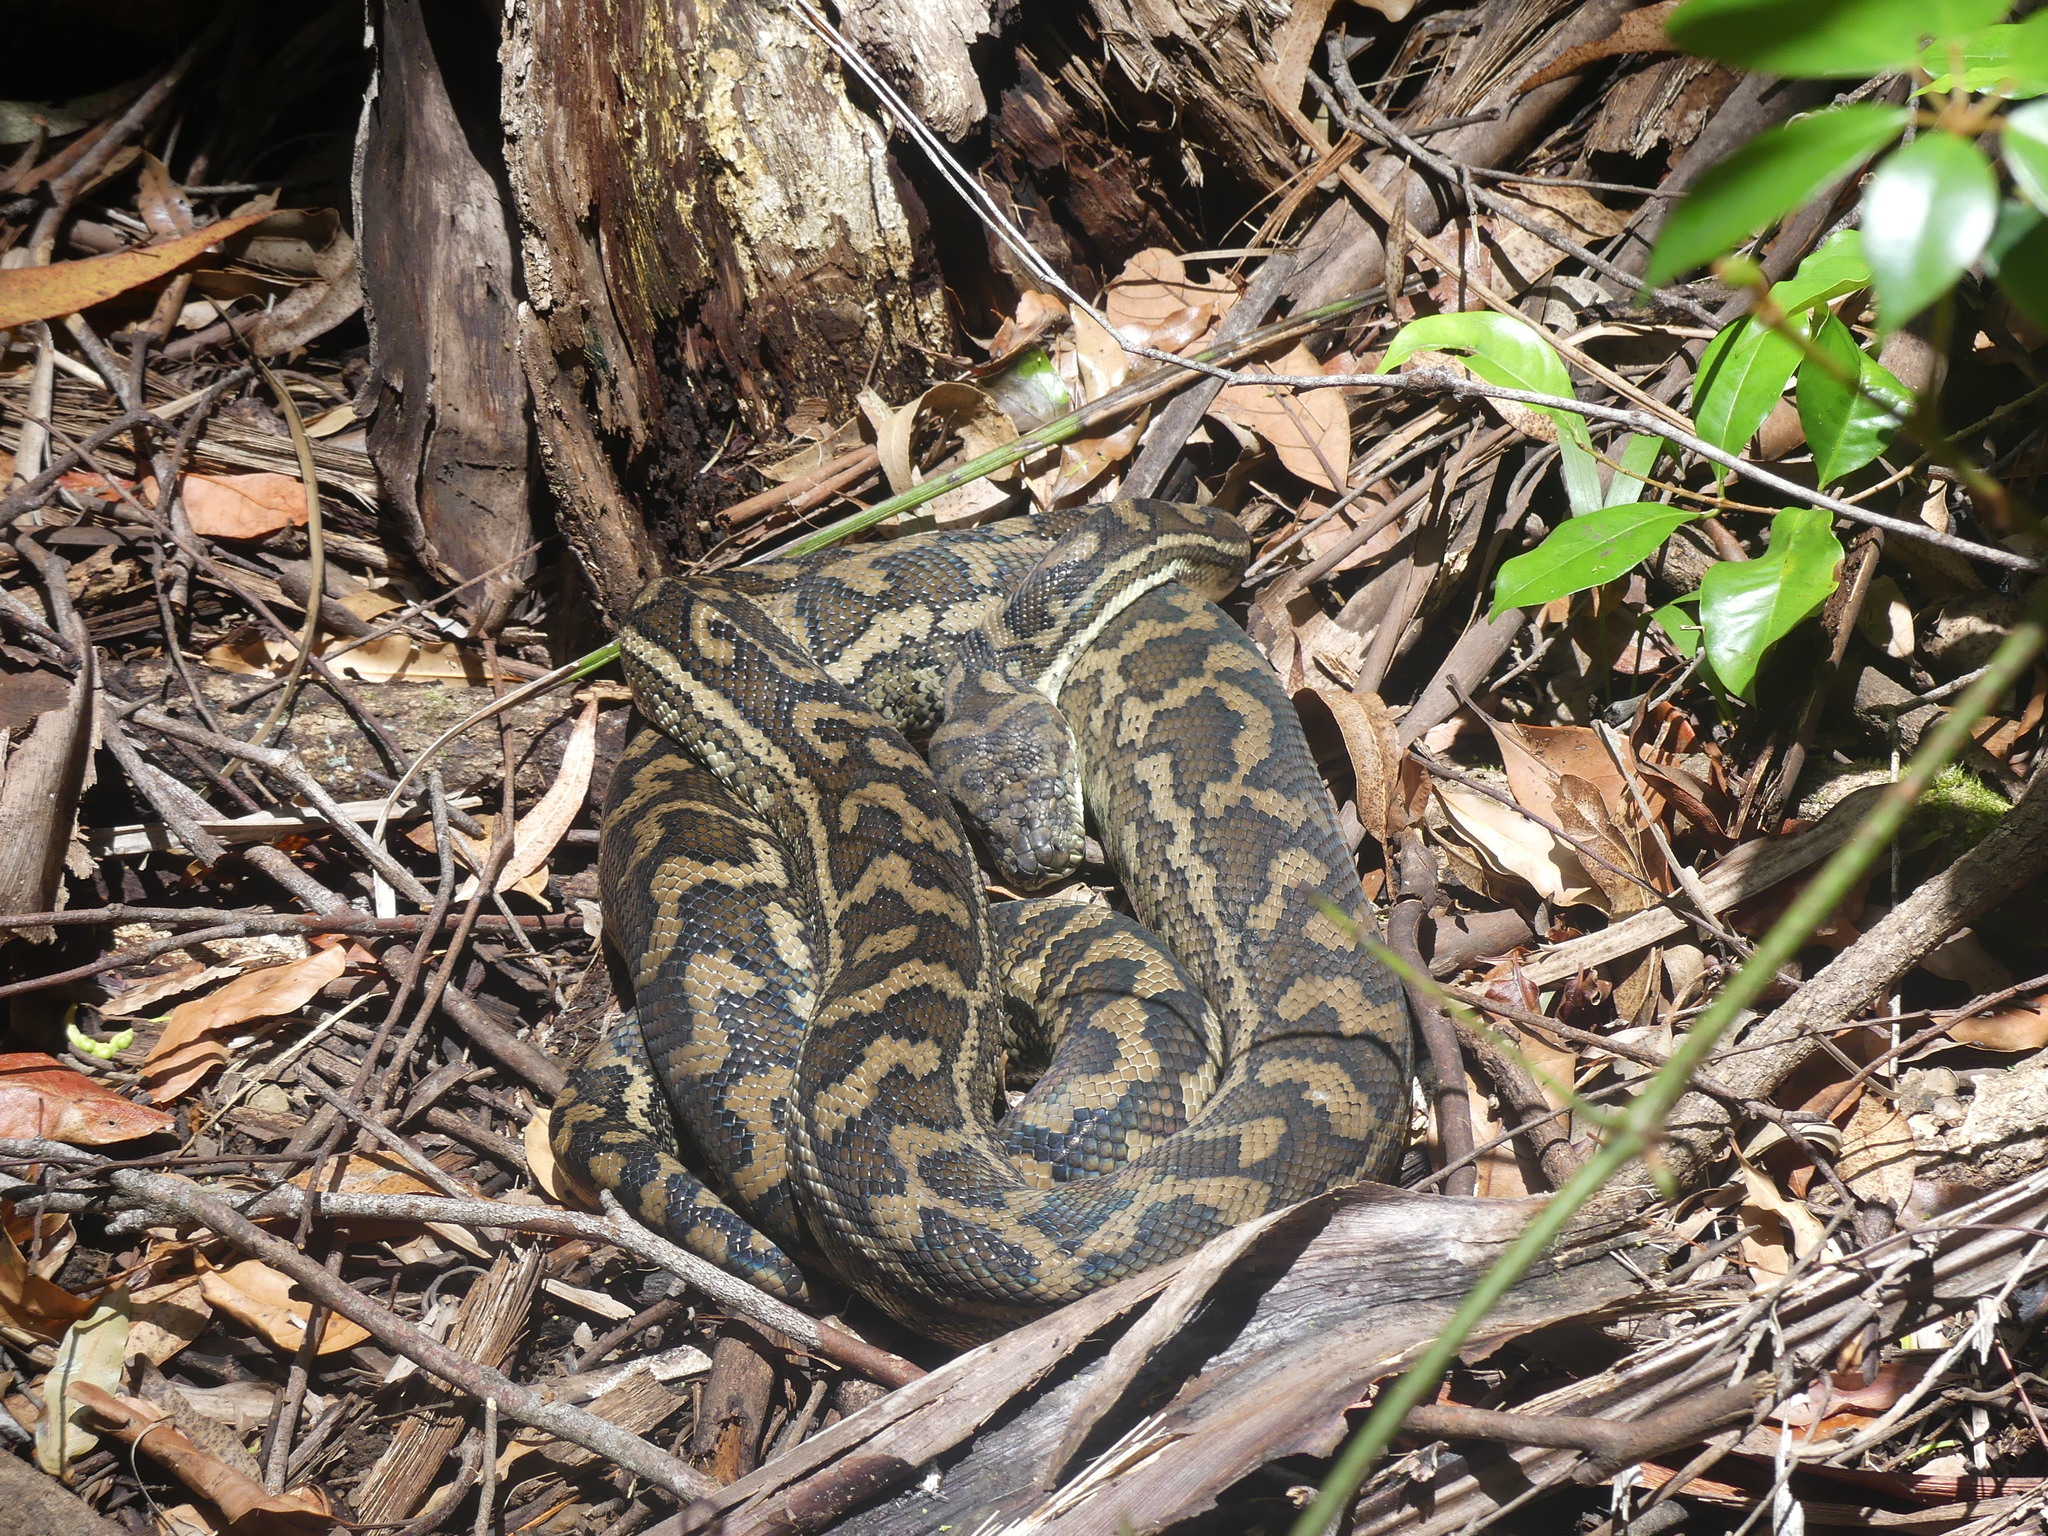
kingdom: Animalia
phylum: Chordata
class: Squamata
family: Pythonidae
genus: Morelia
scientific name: Morelia spilota
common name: Carpet python
